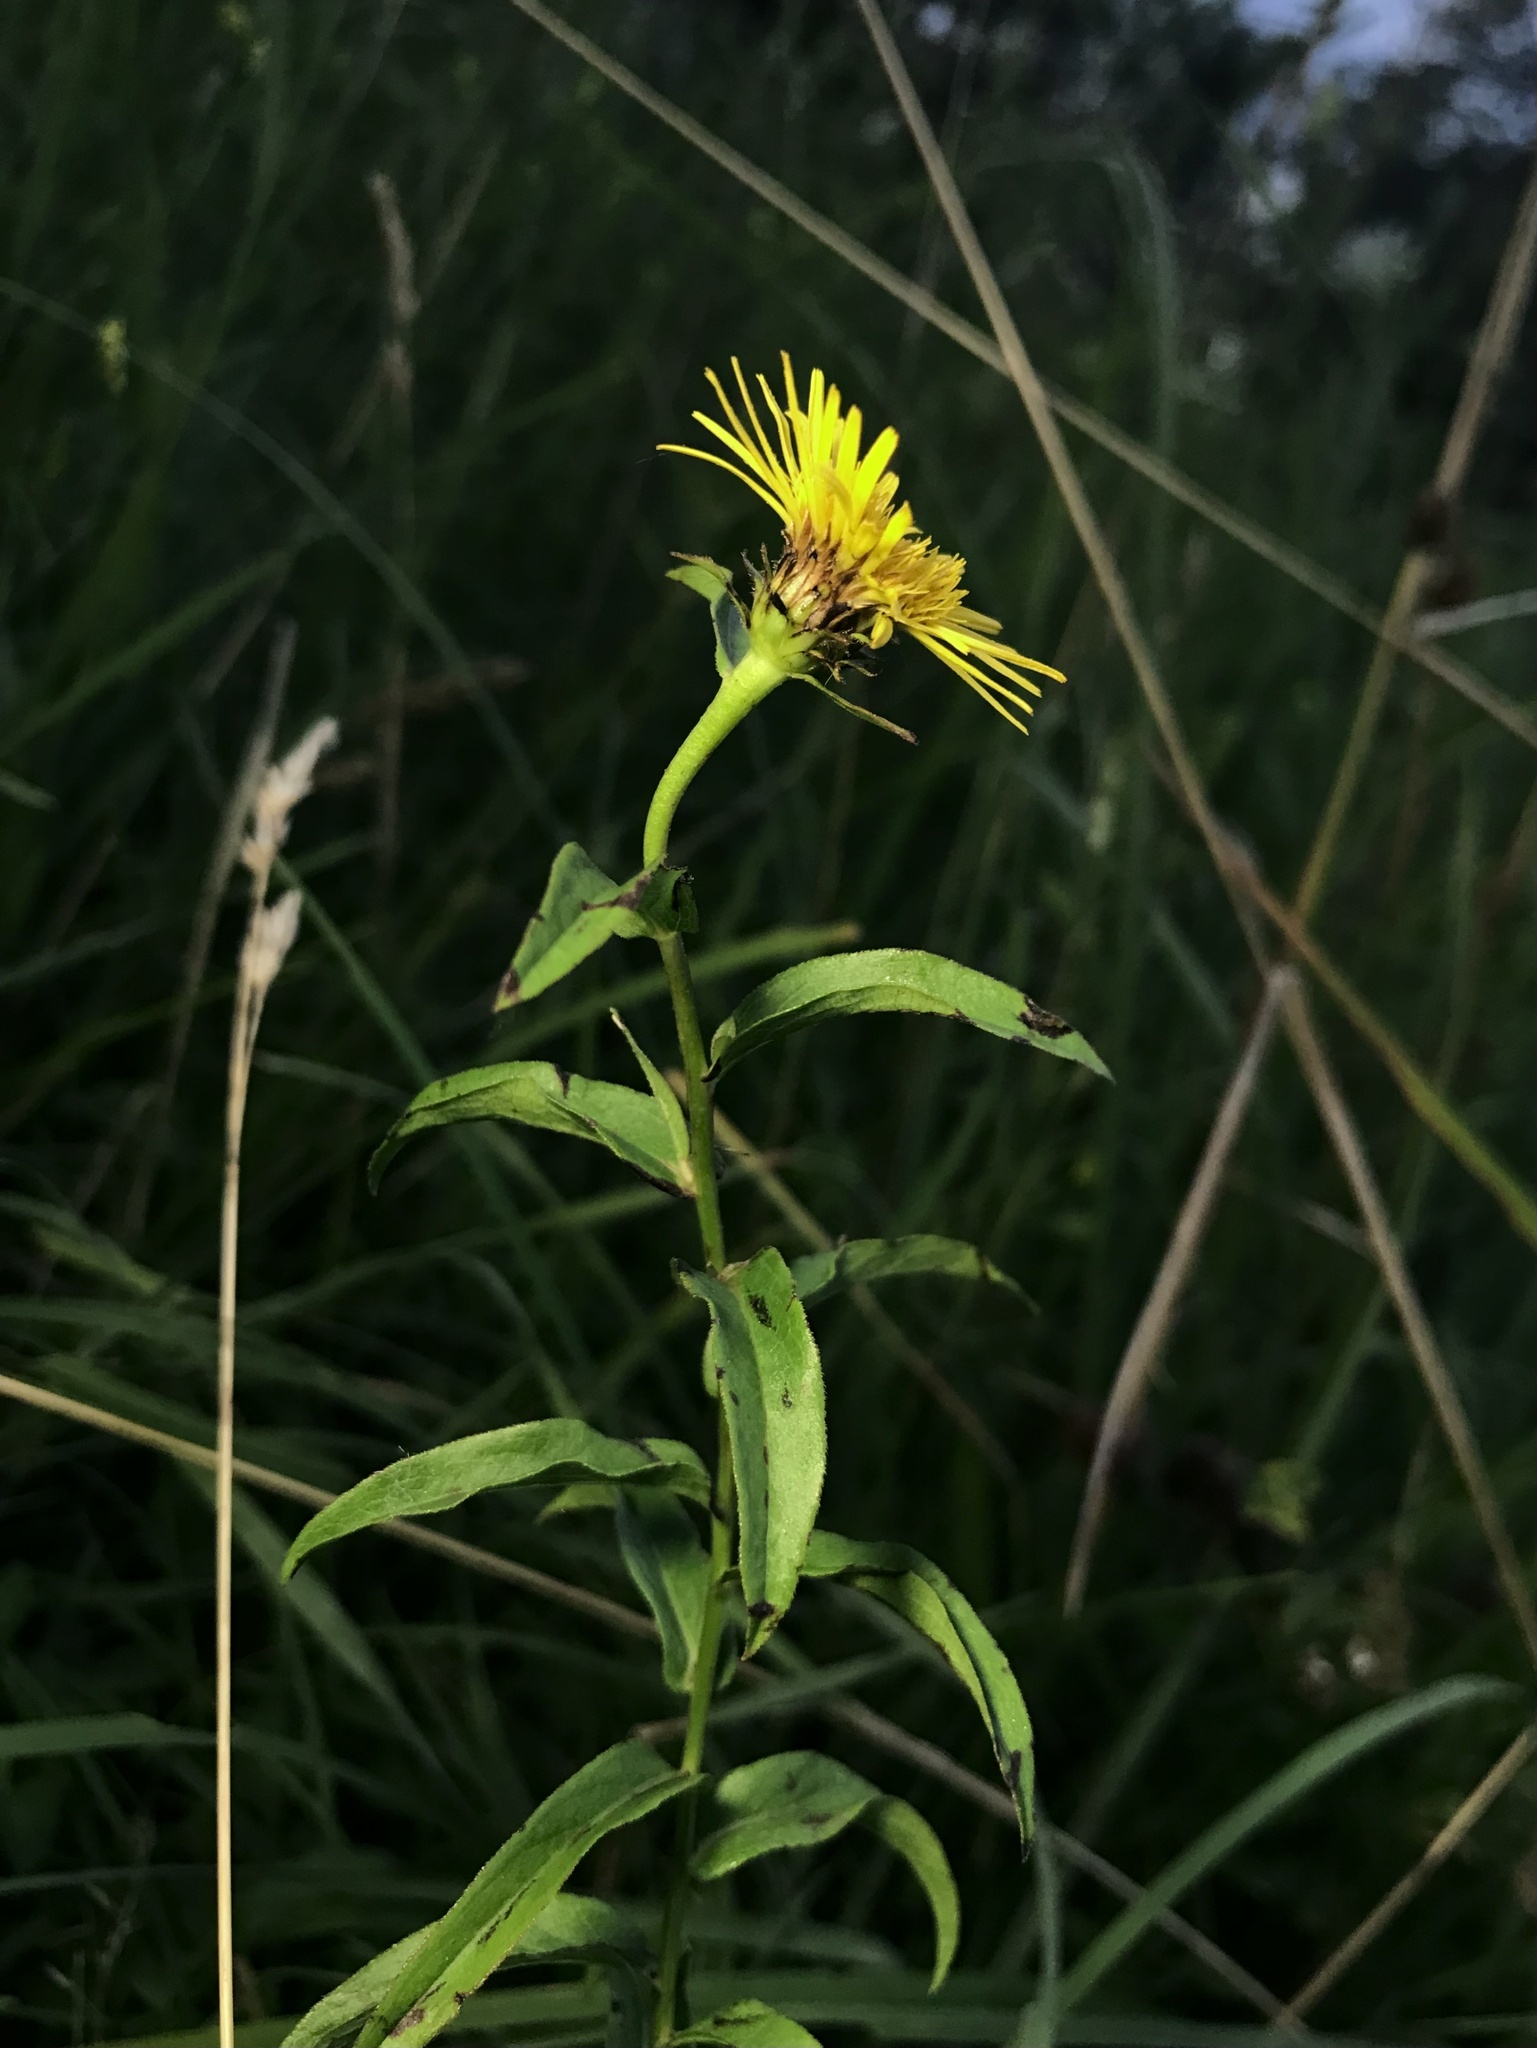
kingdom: Plantae
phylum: Tracheophyta
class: Magnoliopsida
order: Asterales
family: Asteraceae
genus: Pentanema
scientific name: Pentanema salicinum
